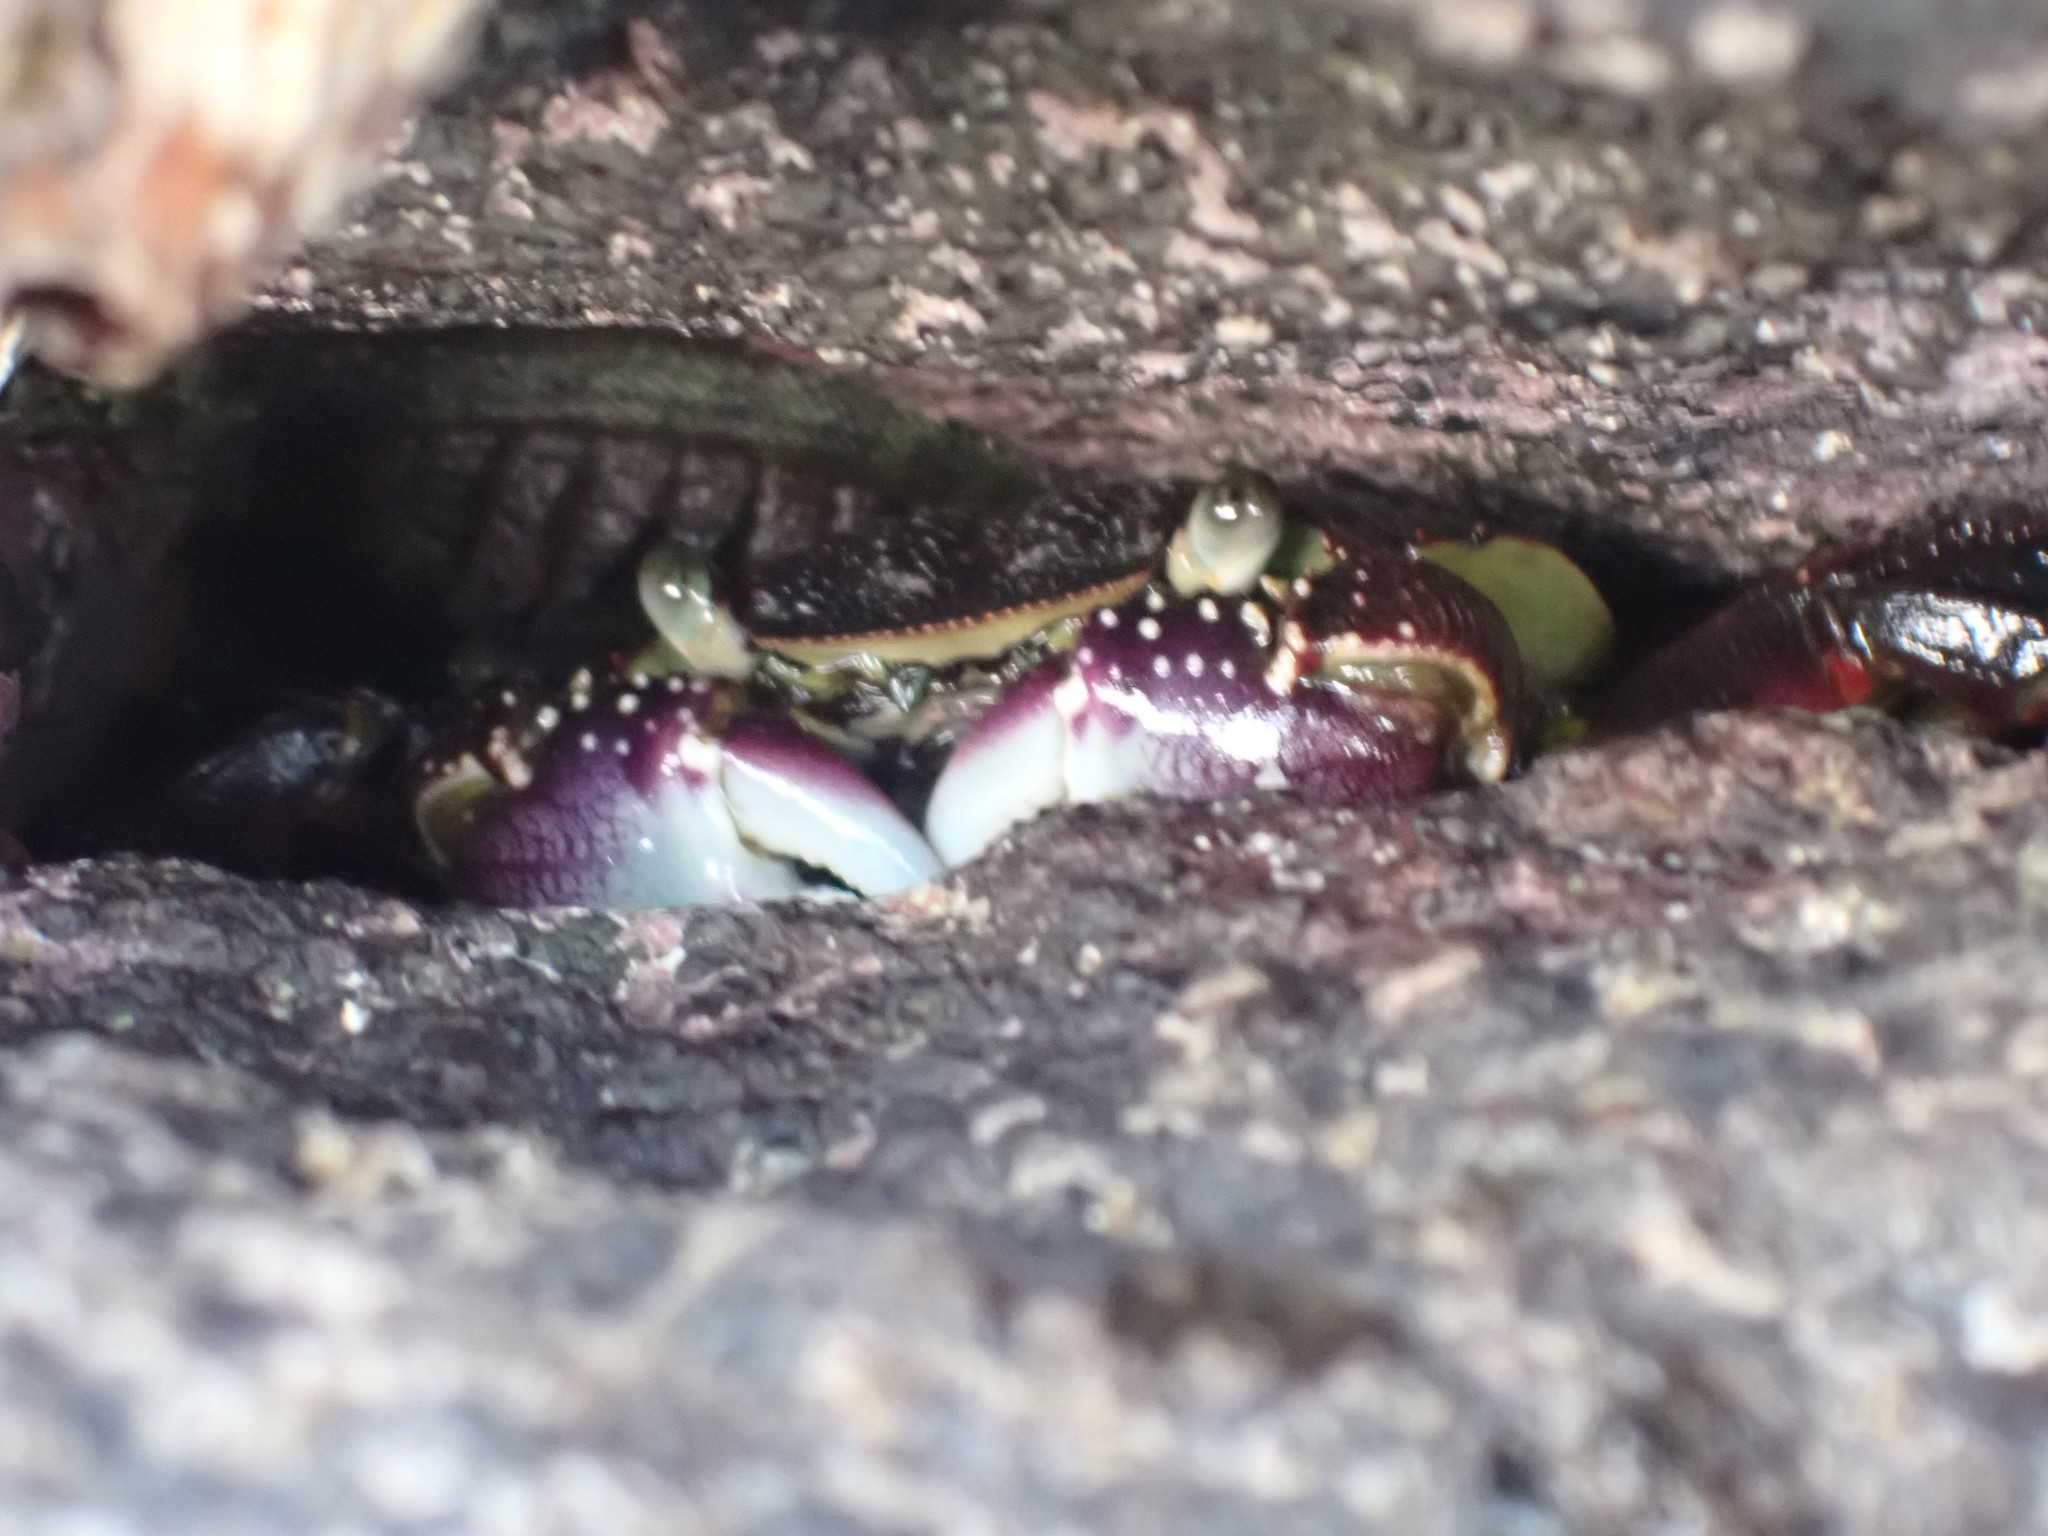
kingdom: Animalia
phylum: Arthropoda
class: Malacostraca
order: Decapoda
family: Grapsidae
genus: Leptograpsus
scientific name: Leptograpsus variegatus
